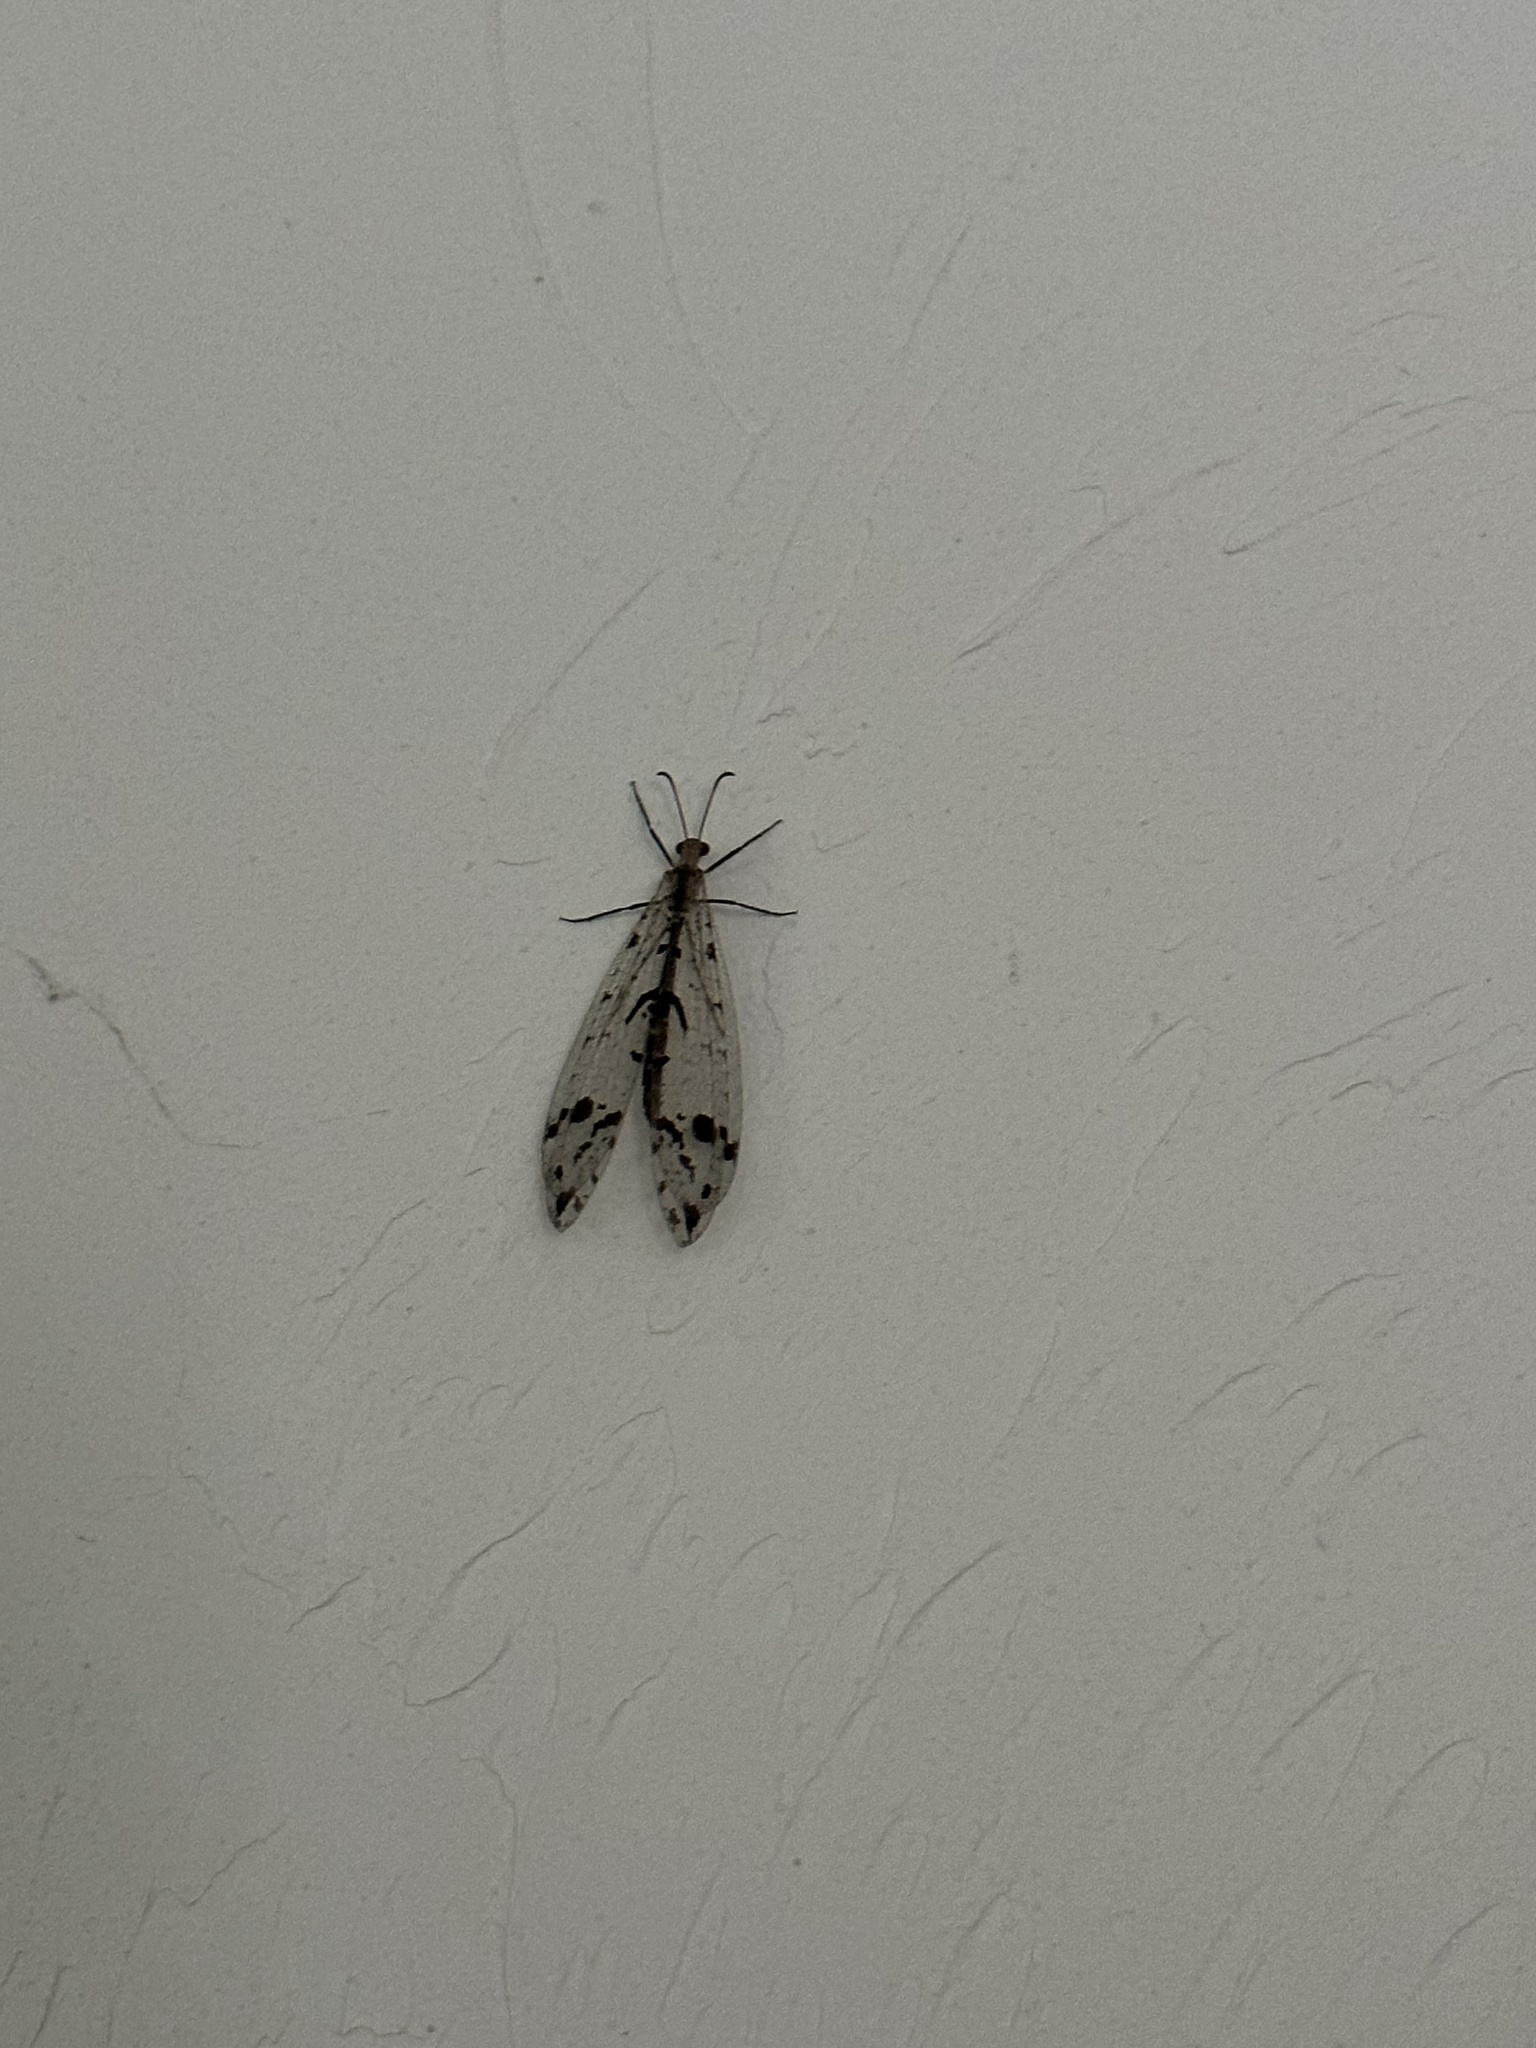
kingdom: Animalia
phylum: Arthropoda
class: Insecta
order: Neuroptera
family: Myrmeleontidae
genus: Dendroleon
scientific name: Dendroleon obsoletus
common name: Eastern spotted-winged antlion
